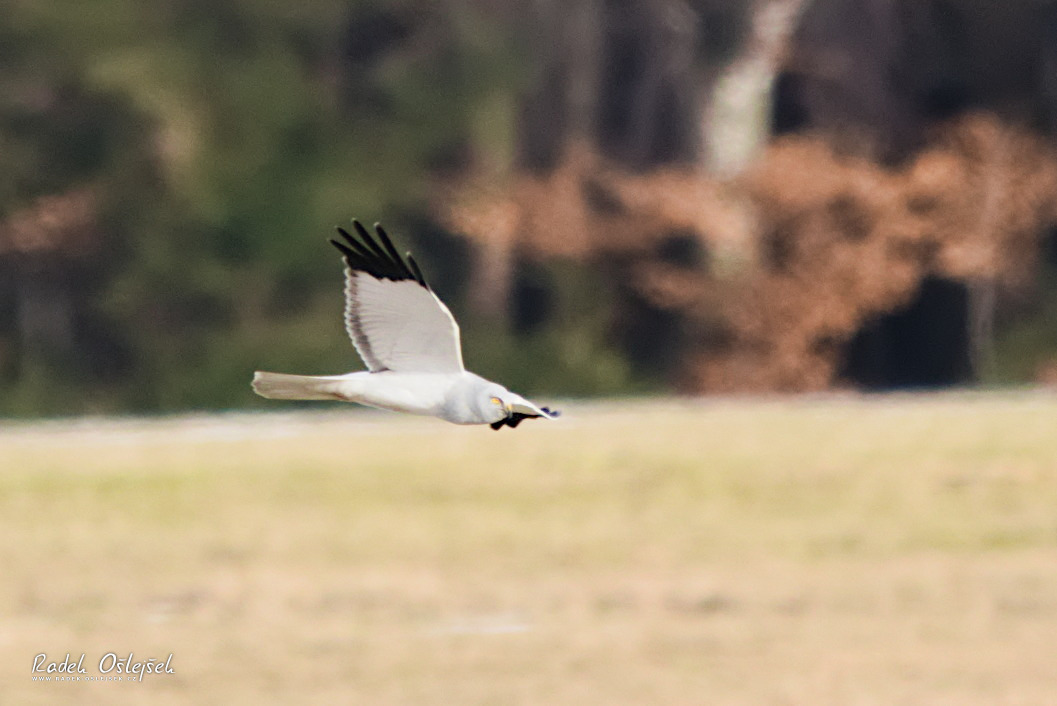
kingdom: Animalia
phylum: Chordata
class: Aves
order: Accipitriformes
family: Accipitridae
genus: Circus
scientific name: Circus cyaneus
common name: Hen harrier
